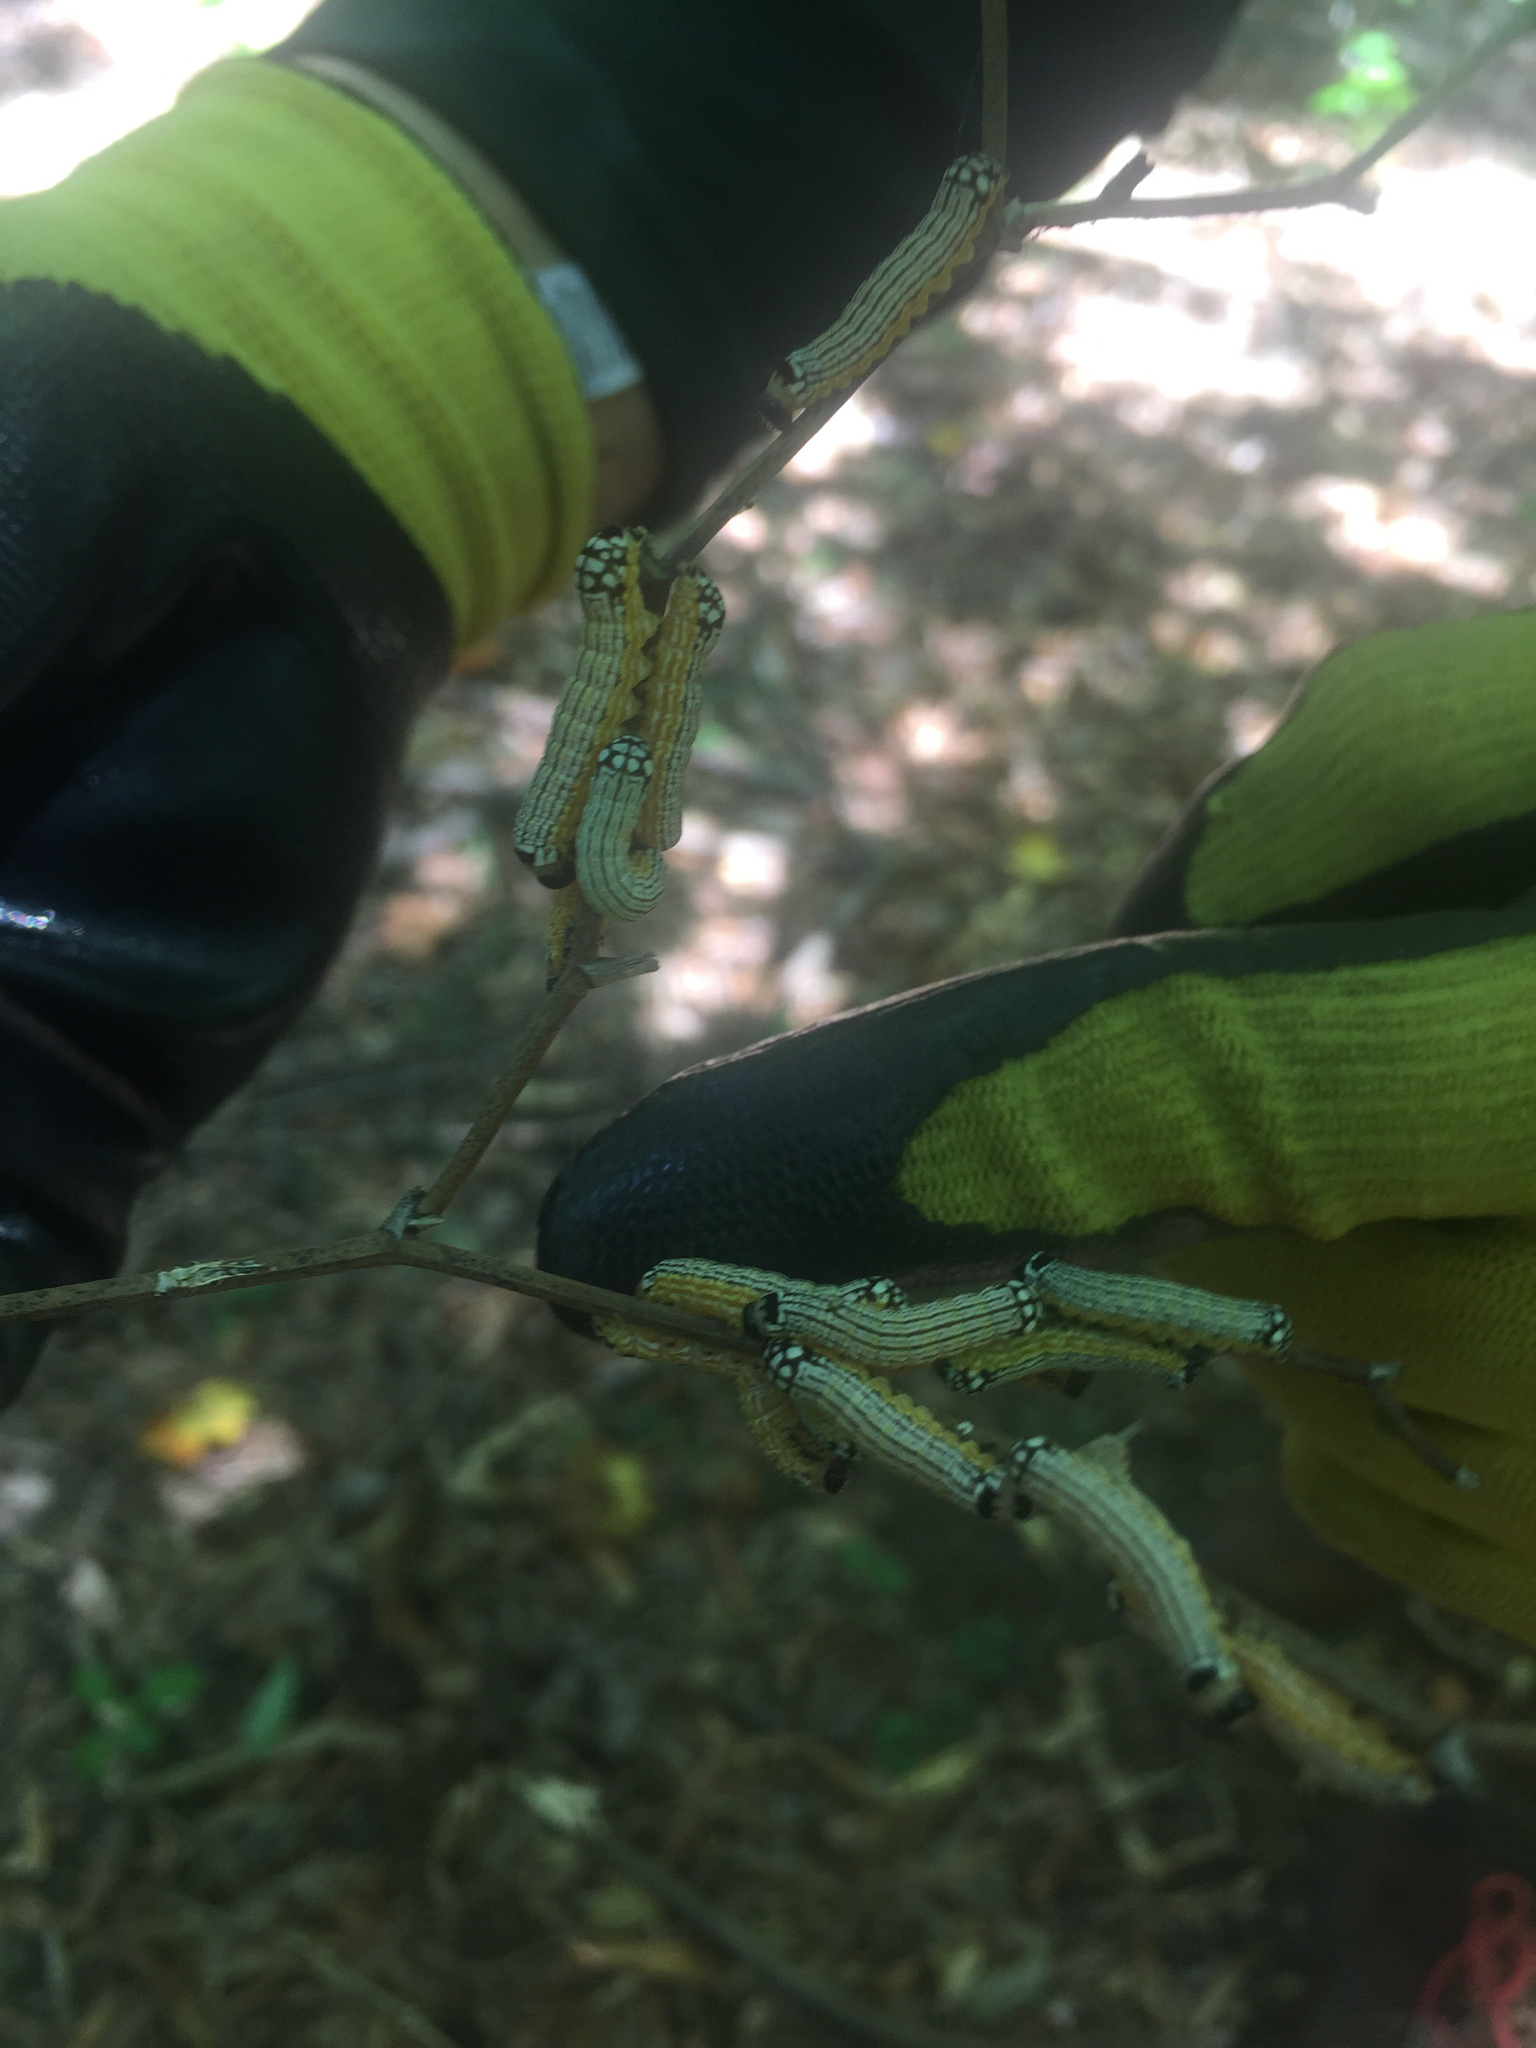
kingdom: Animalia
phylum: Arthropoda
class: Insecta
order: Lepidoptera
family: Noctuidae
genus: Phosphila
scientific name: Phosphila turbulenta
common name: Turbulent phosphila moth
